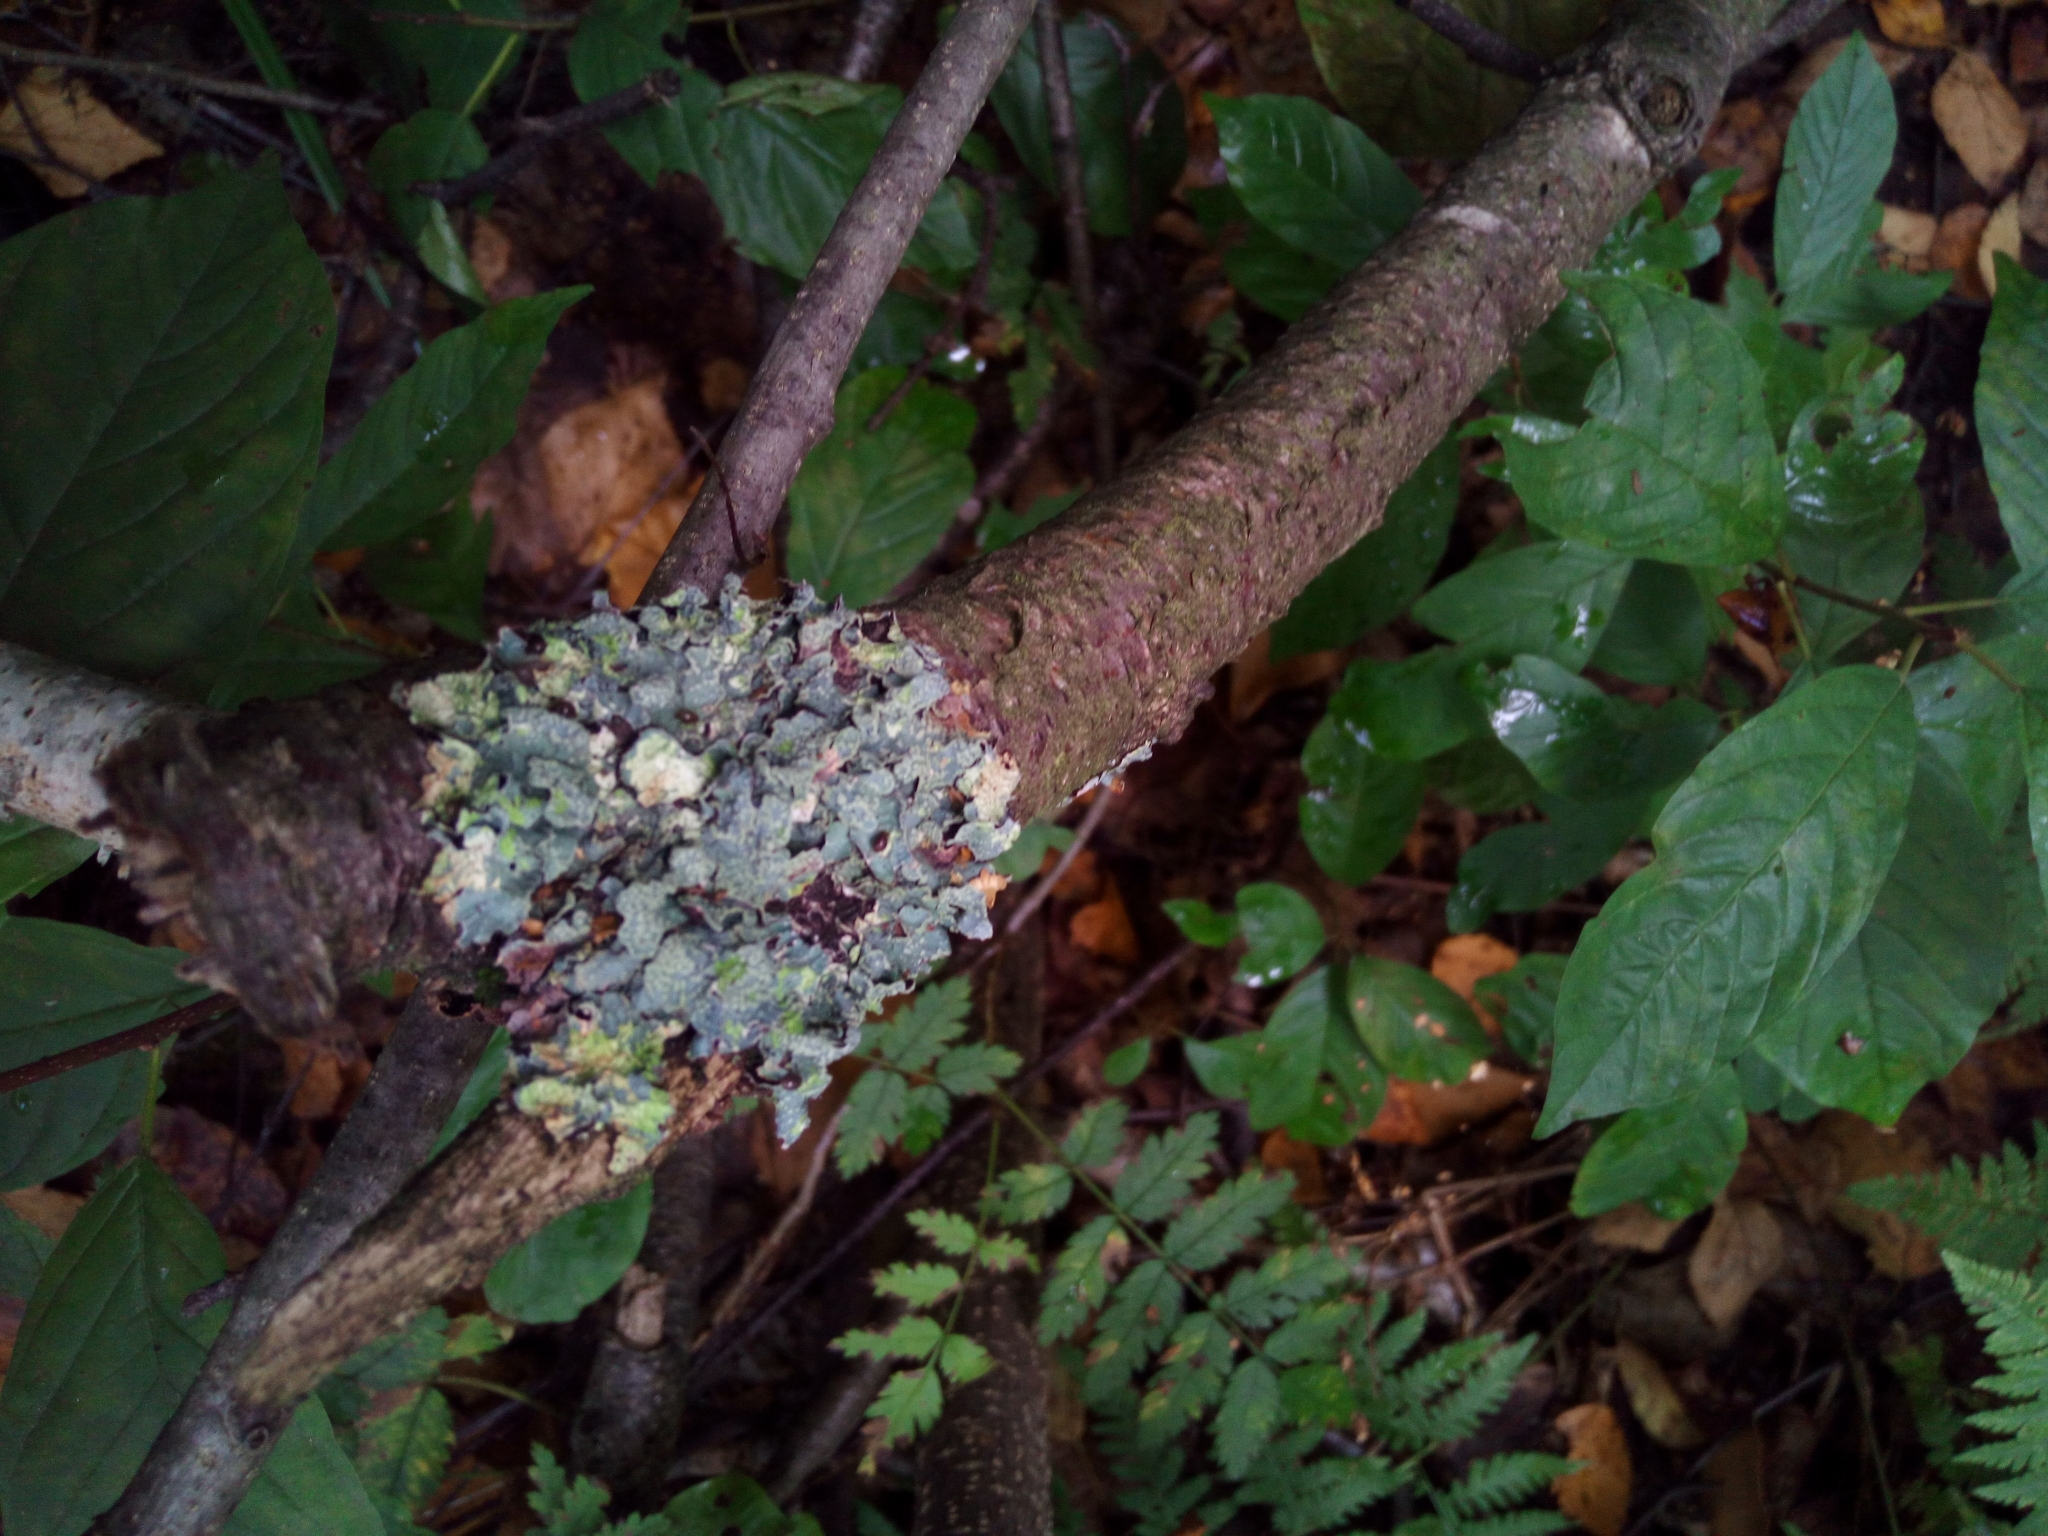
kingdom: Fungi
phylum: Ascomycota
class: Lecanoromycetes
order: Lecanorales
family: Parmeliaceae
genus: Parmelia
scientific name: Parmelia sulcata
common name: Netted shield lichen
